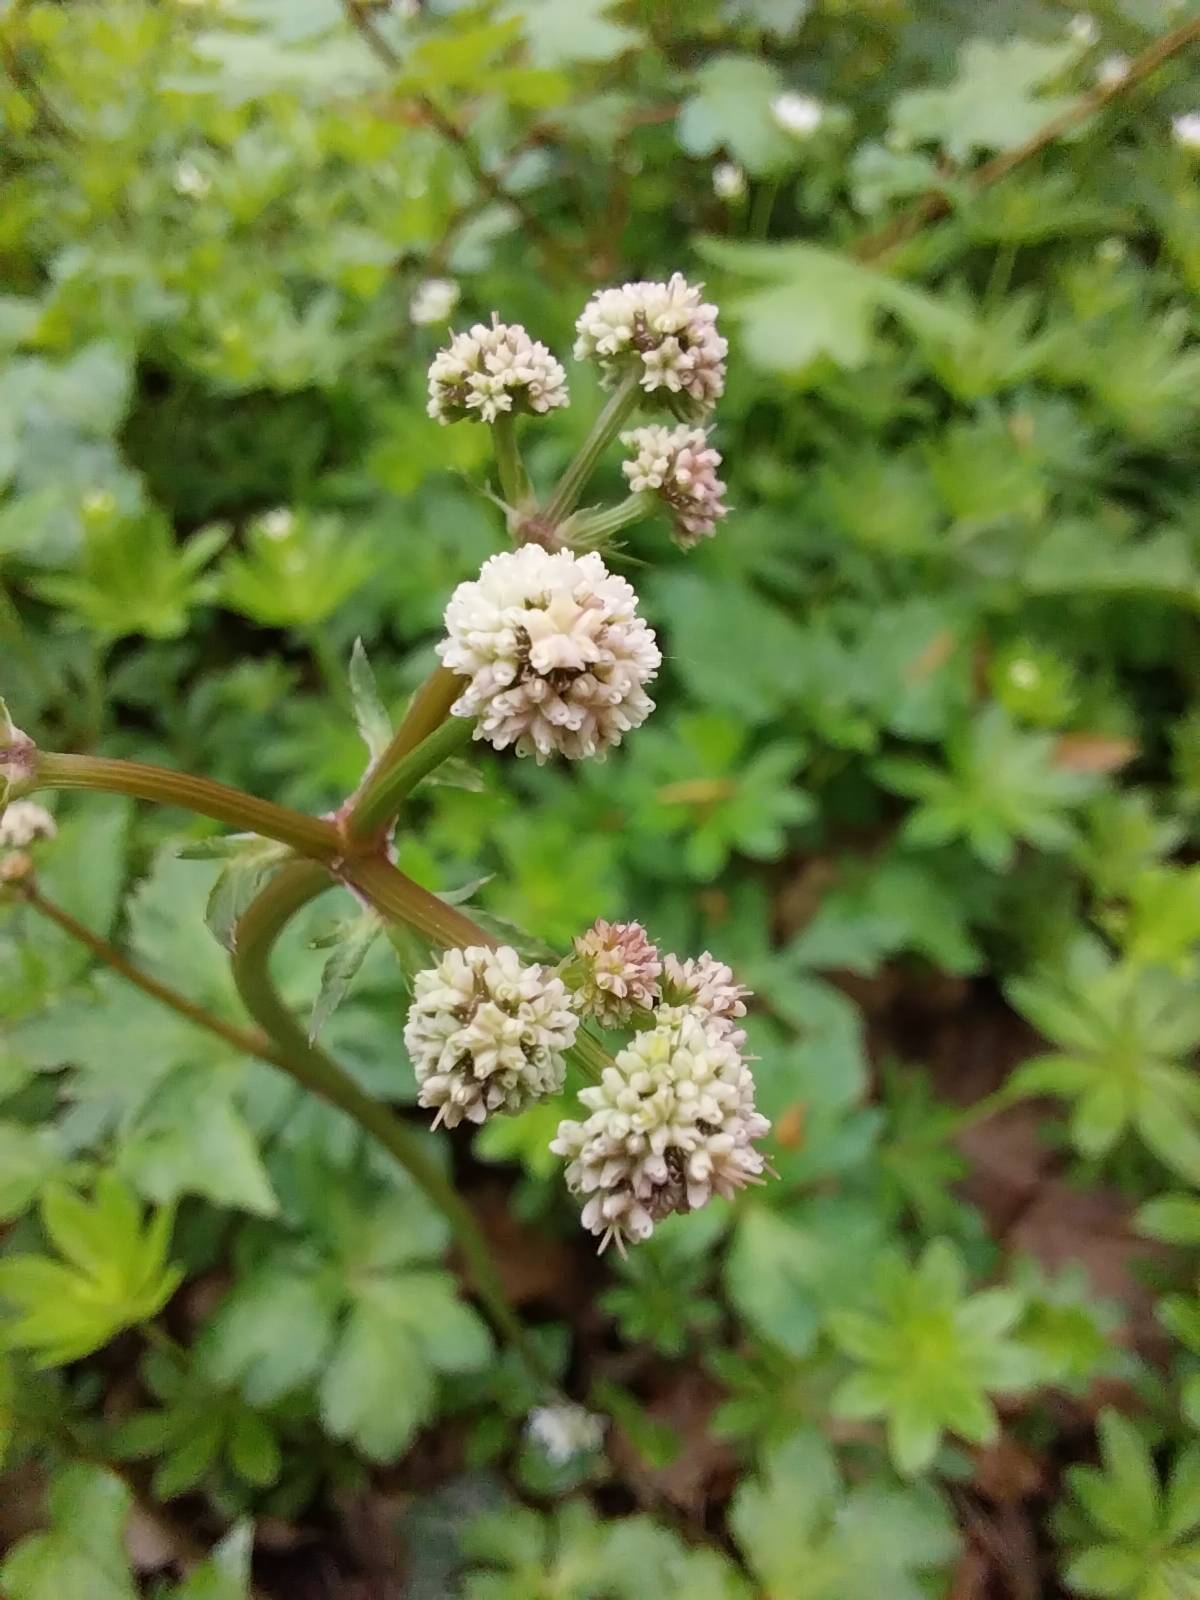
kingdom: Plantae
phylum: Tracheophyta
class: Magnoliopsida
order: Apiales
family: Apiaceae
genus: Sanicula
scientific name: Sanicula europaea
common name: Sanicle
